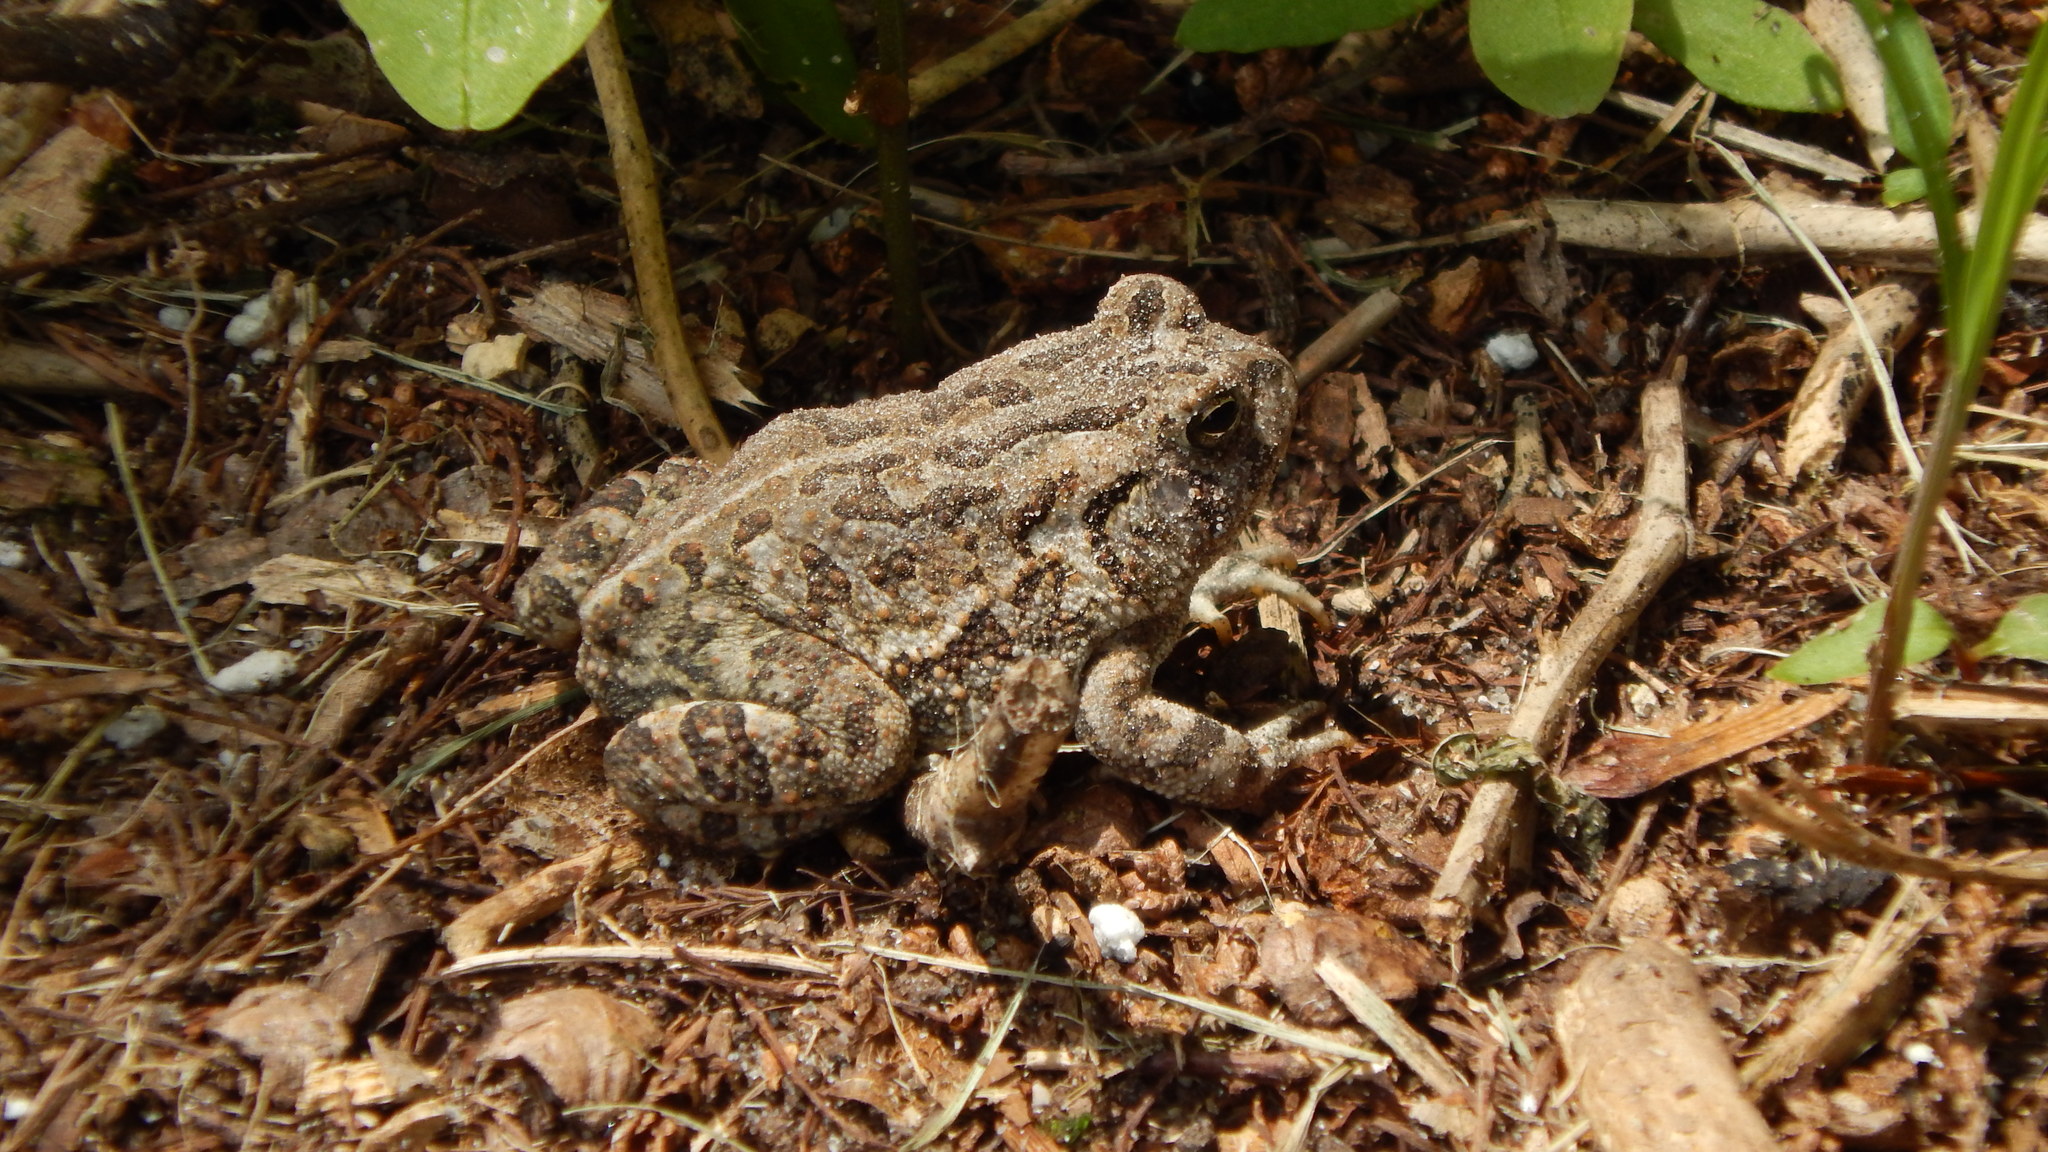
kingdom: Animalia
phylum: Chordata
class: Amphibia
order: Anura
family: Bufonidae
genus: Anaxyrus
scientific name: Anaxyrus fowleri
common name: Fowler's toad
